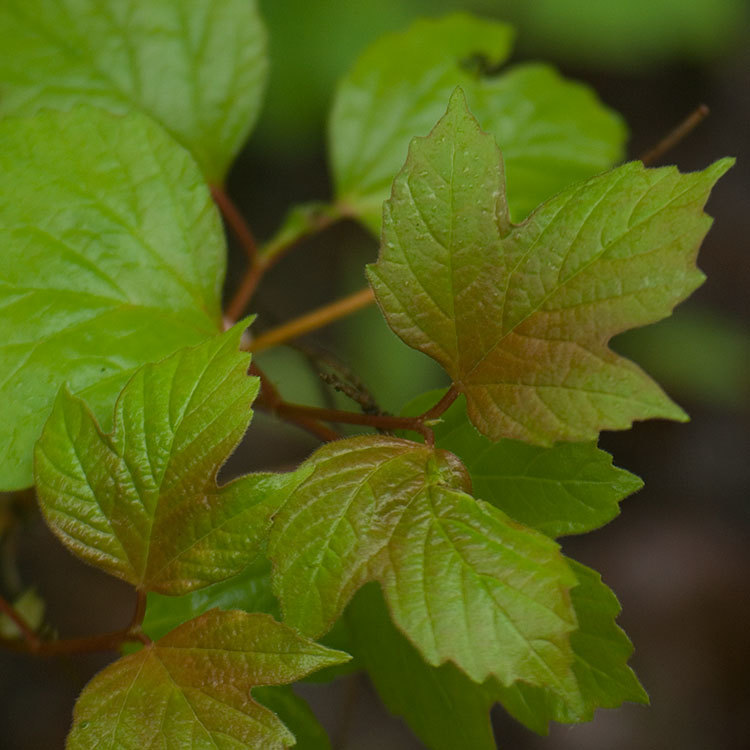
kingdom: Plantae
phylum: Tracheophyta
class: Magnoliopsida
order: Dipsacales
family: Viburnaceae
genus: Viburnum
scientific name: Viburnum trilobum
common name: American cranberrybush
